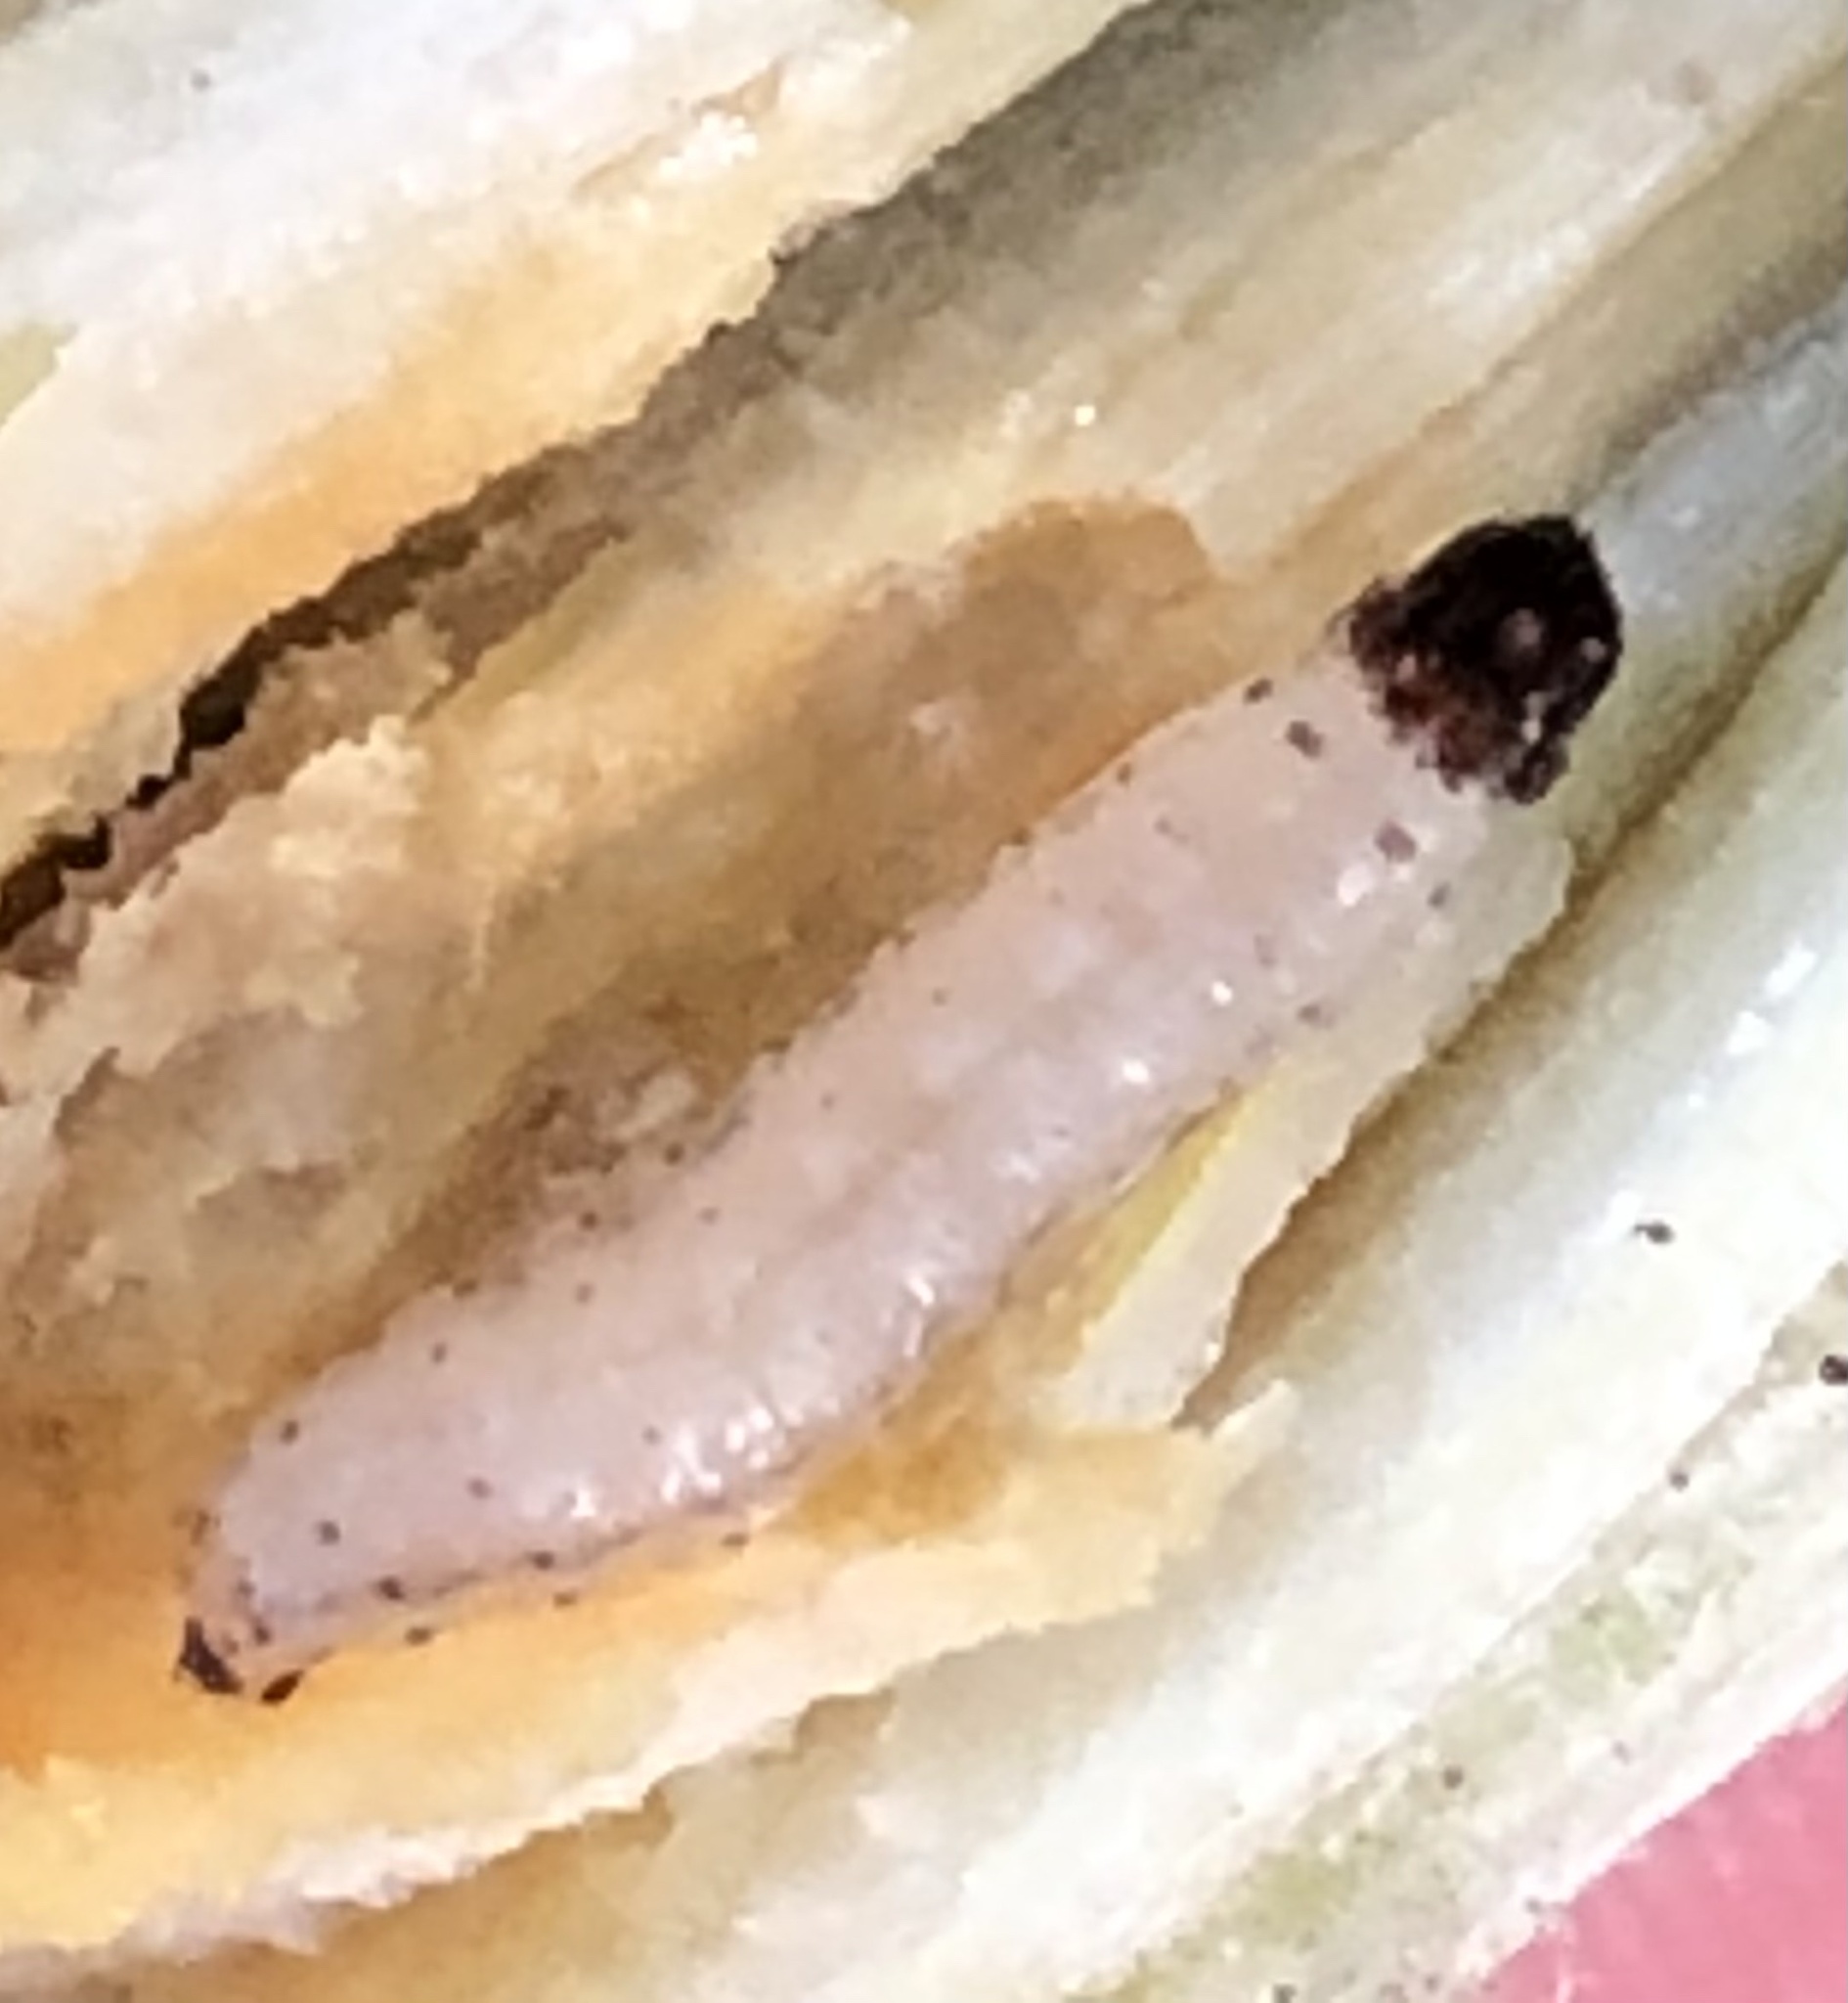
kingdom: Animalia
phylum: Arthropoda
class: Insecta
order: Lepidoptera
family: Sesiidae
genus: Eichlinia
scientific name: Eichlinia cucurbitae
